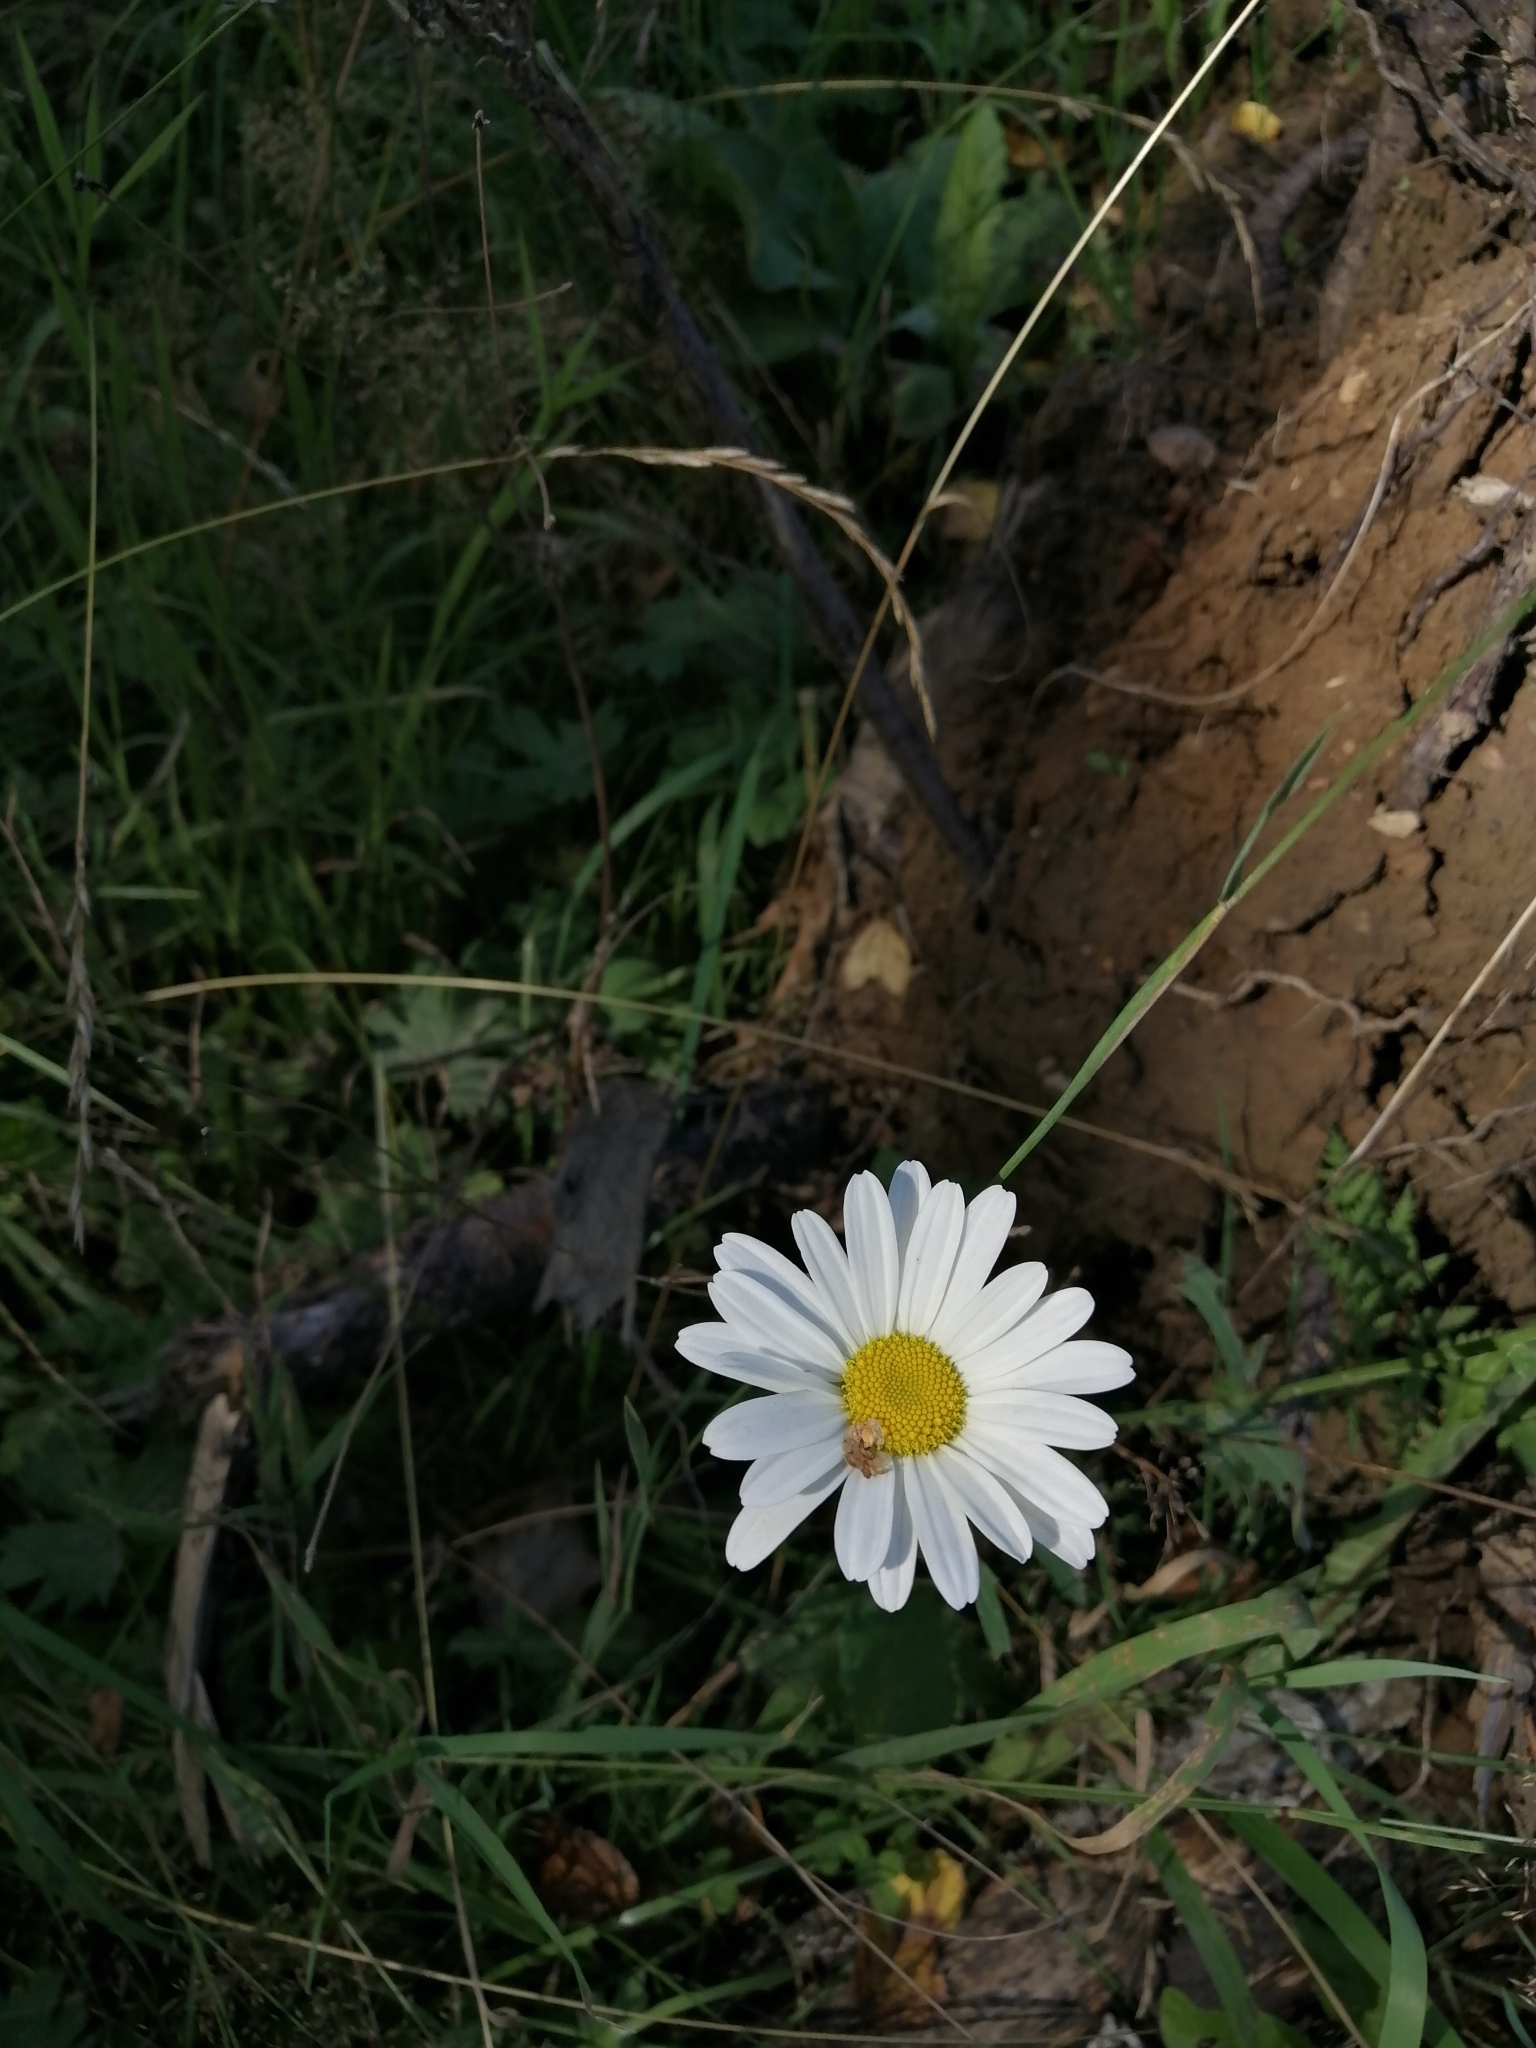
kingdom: Plantae
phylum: Tracheophyta
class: Magnoliopsida
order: Asterales
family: Asteraceae
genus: Leucanthemum
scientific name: Leucanthemum ircutianum
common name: Daisy
